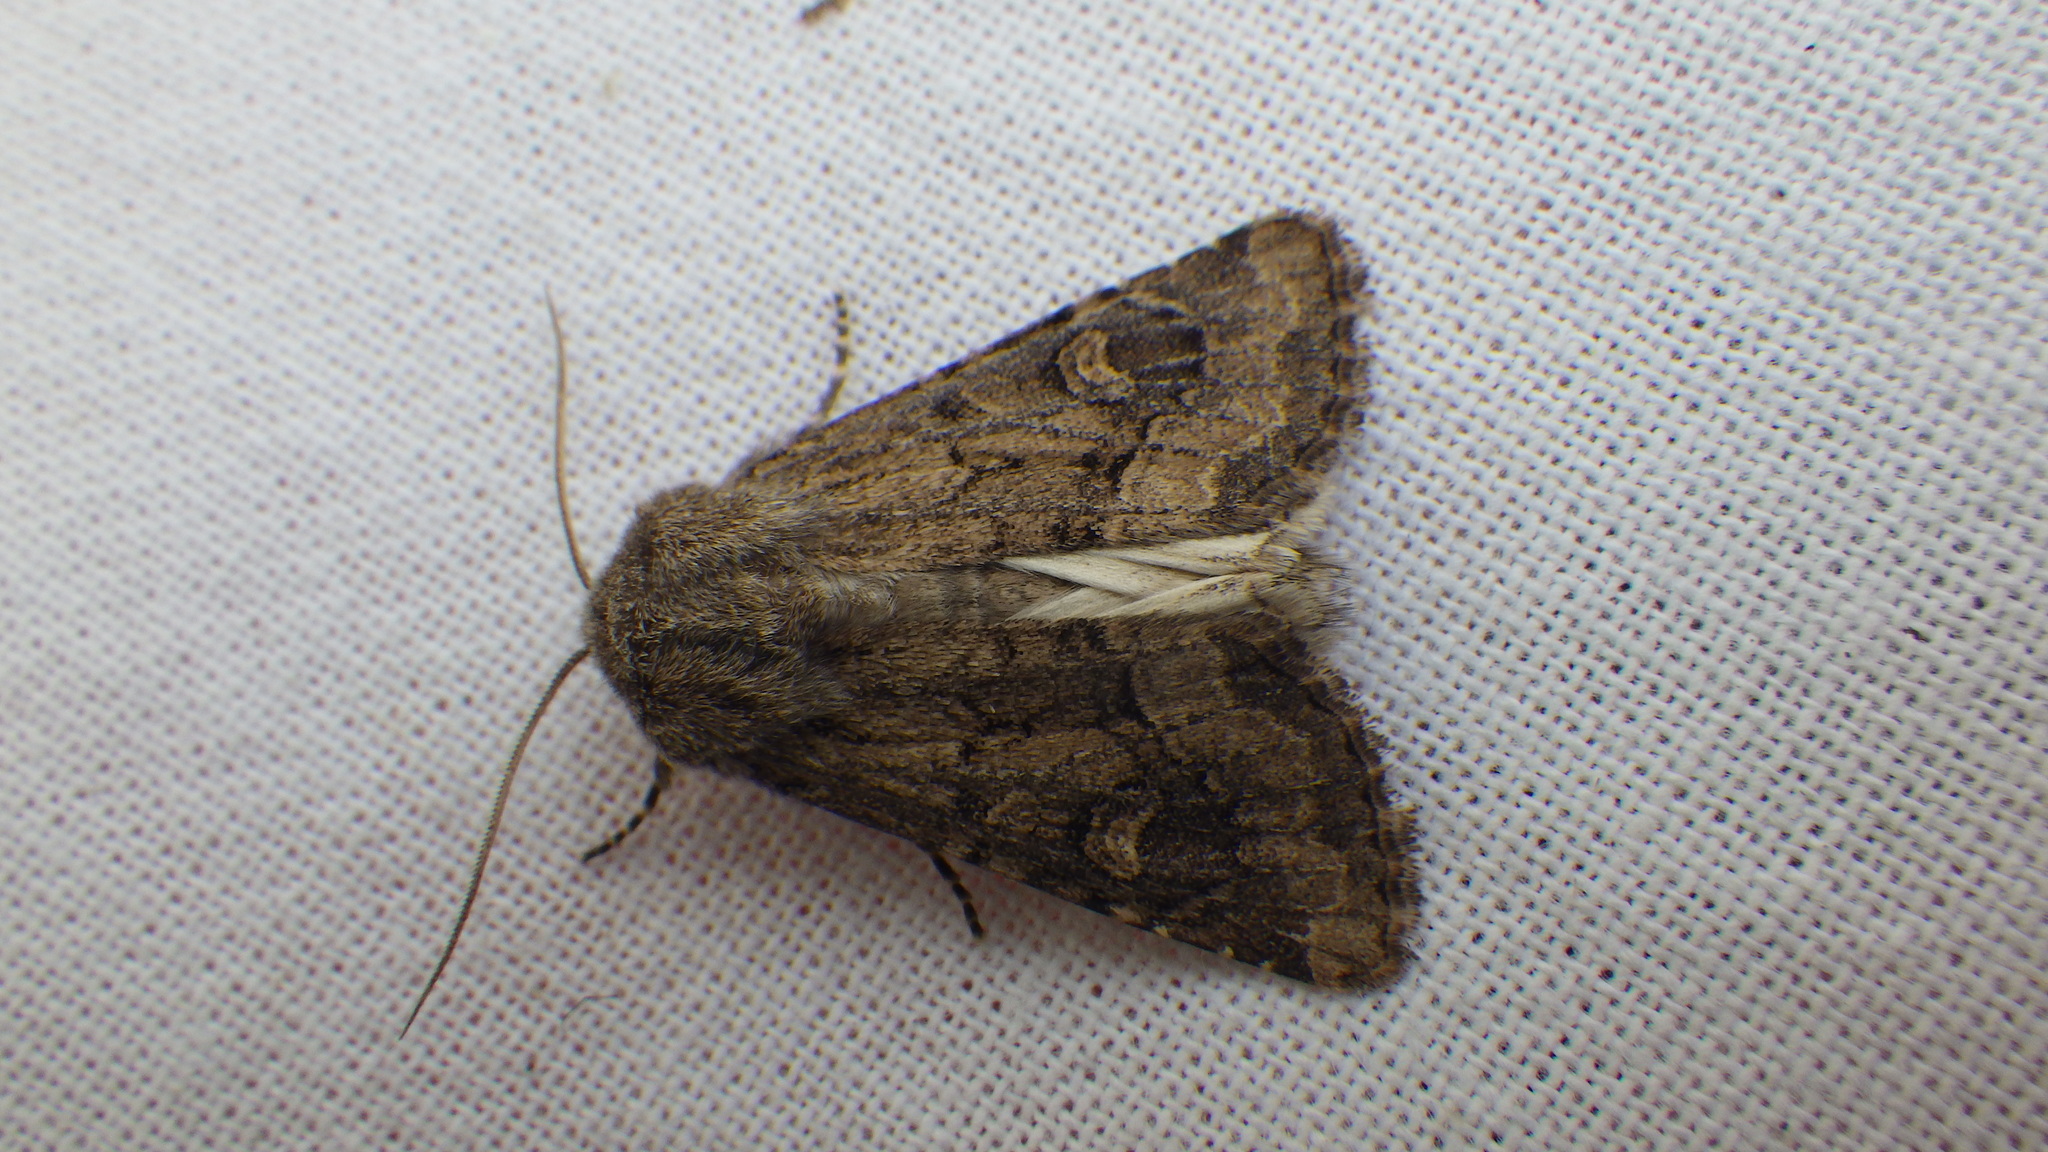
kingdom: Animalia
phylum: Arthropoda
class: Insecta
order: Lepidoptera
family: Noctuidae
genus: Luperina
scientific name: Luperina testacea
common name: Flounced rustic
